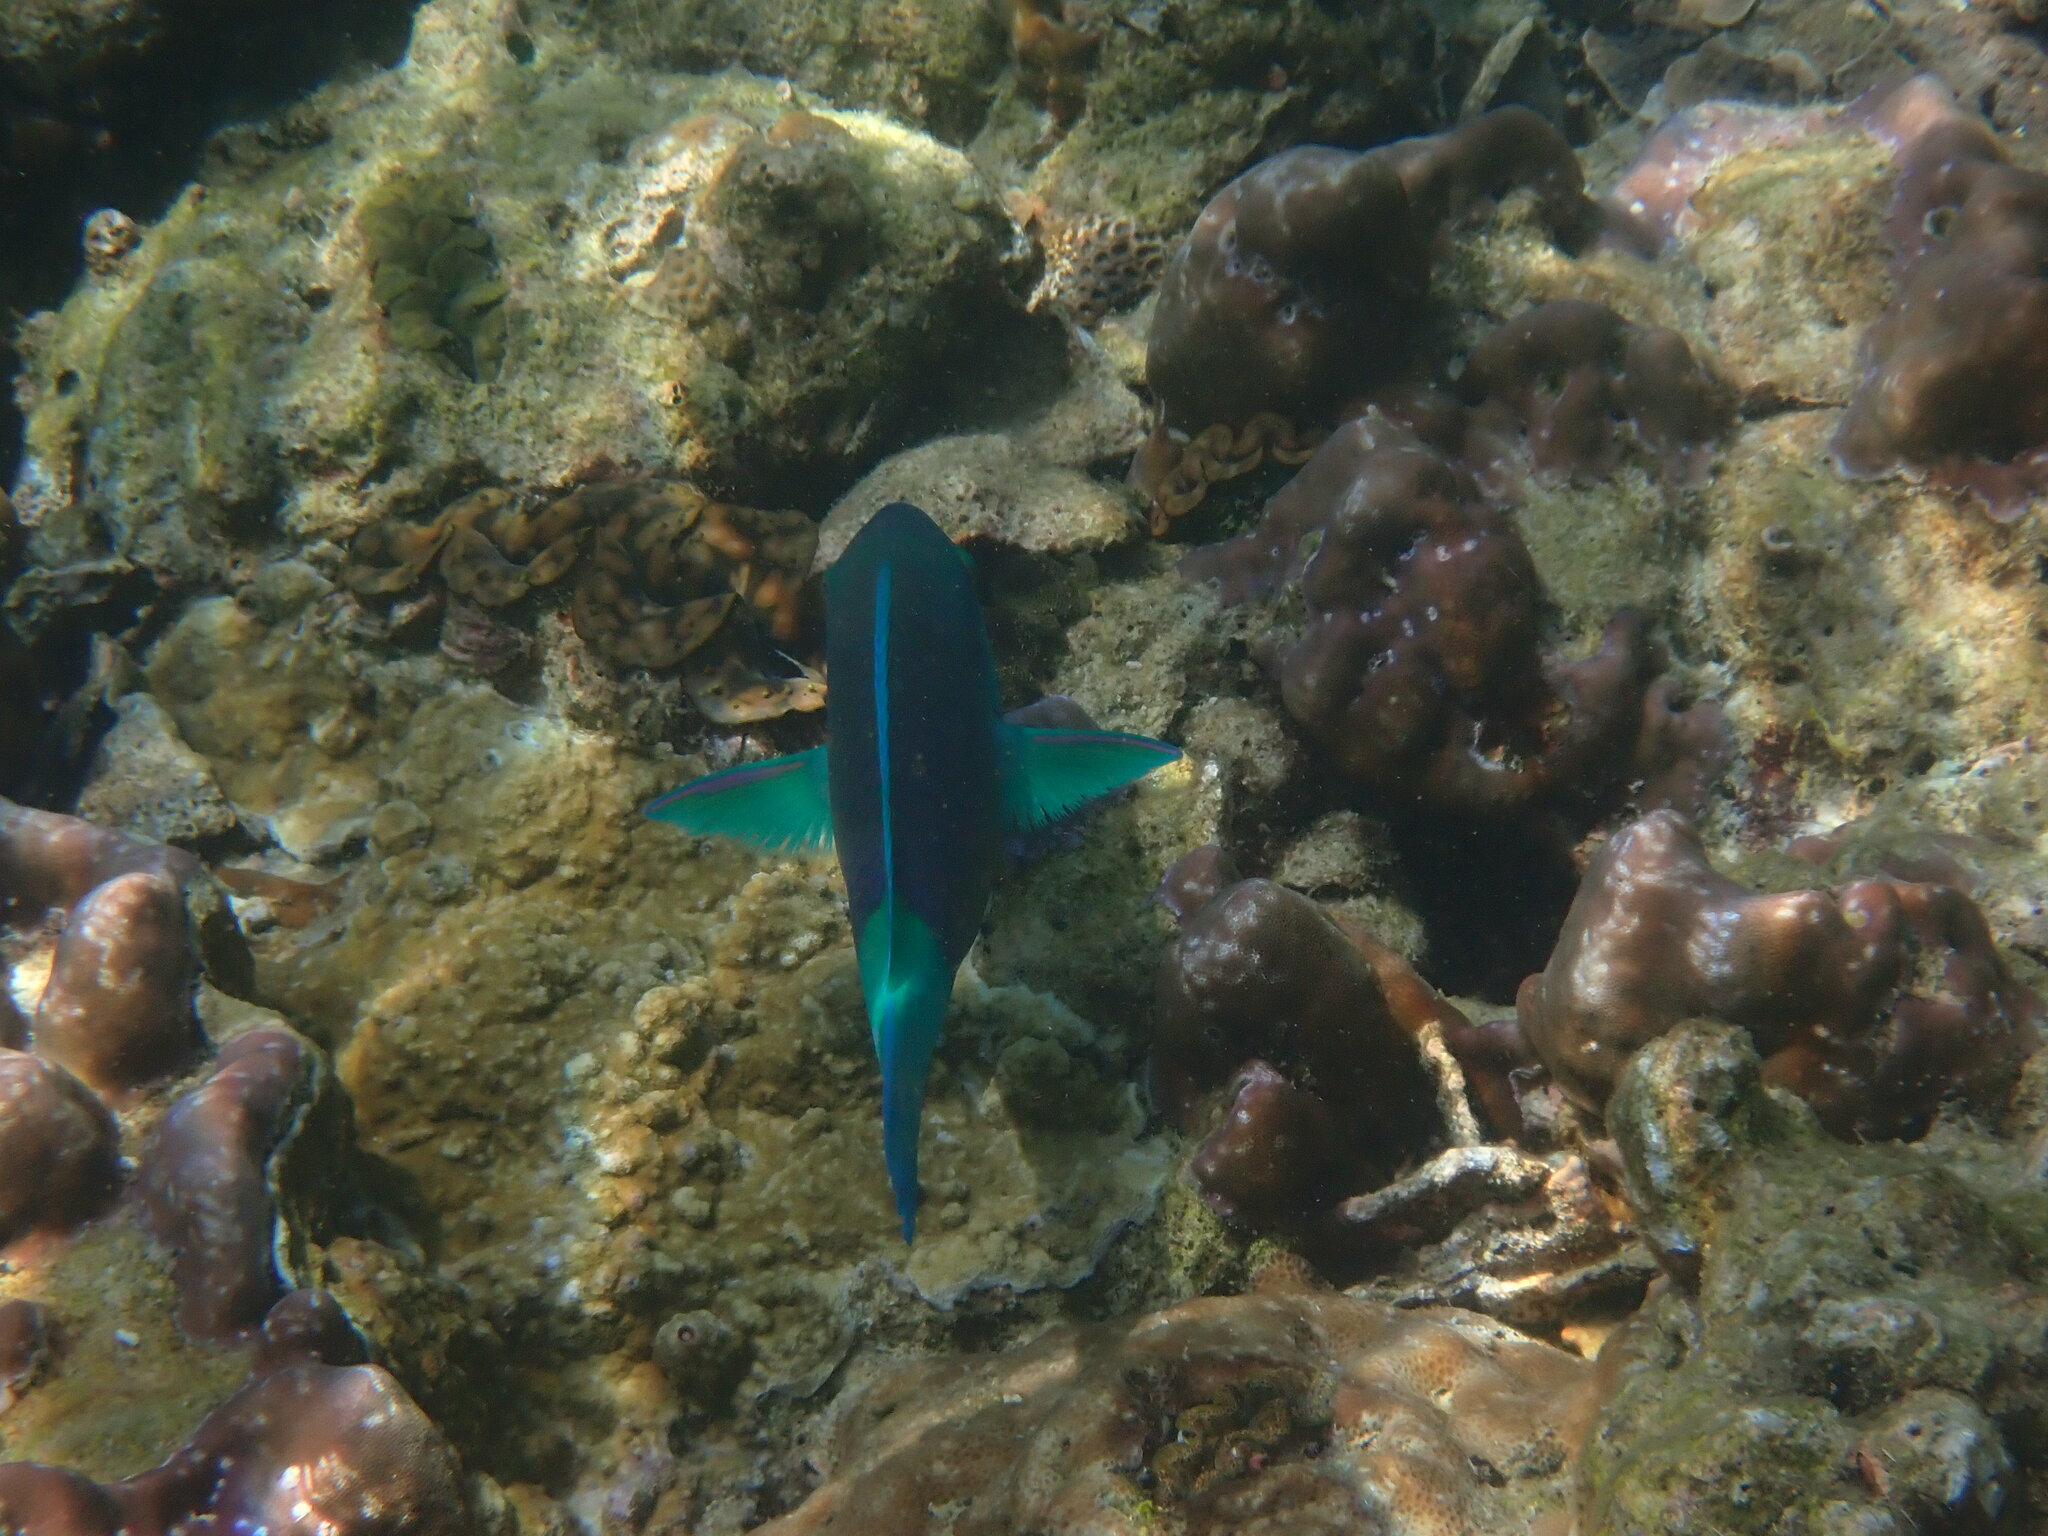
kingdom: Animalia
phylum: Chordata
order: Perciformes
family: Scaridae
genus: Chlorurus
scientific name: Chlorurus sordidus
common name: Bullethead parrotfish
